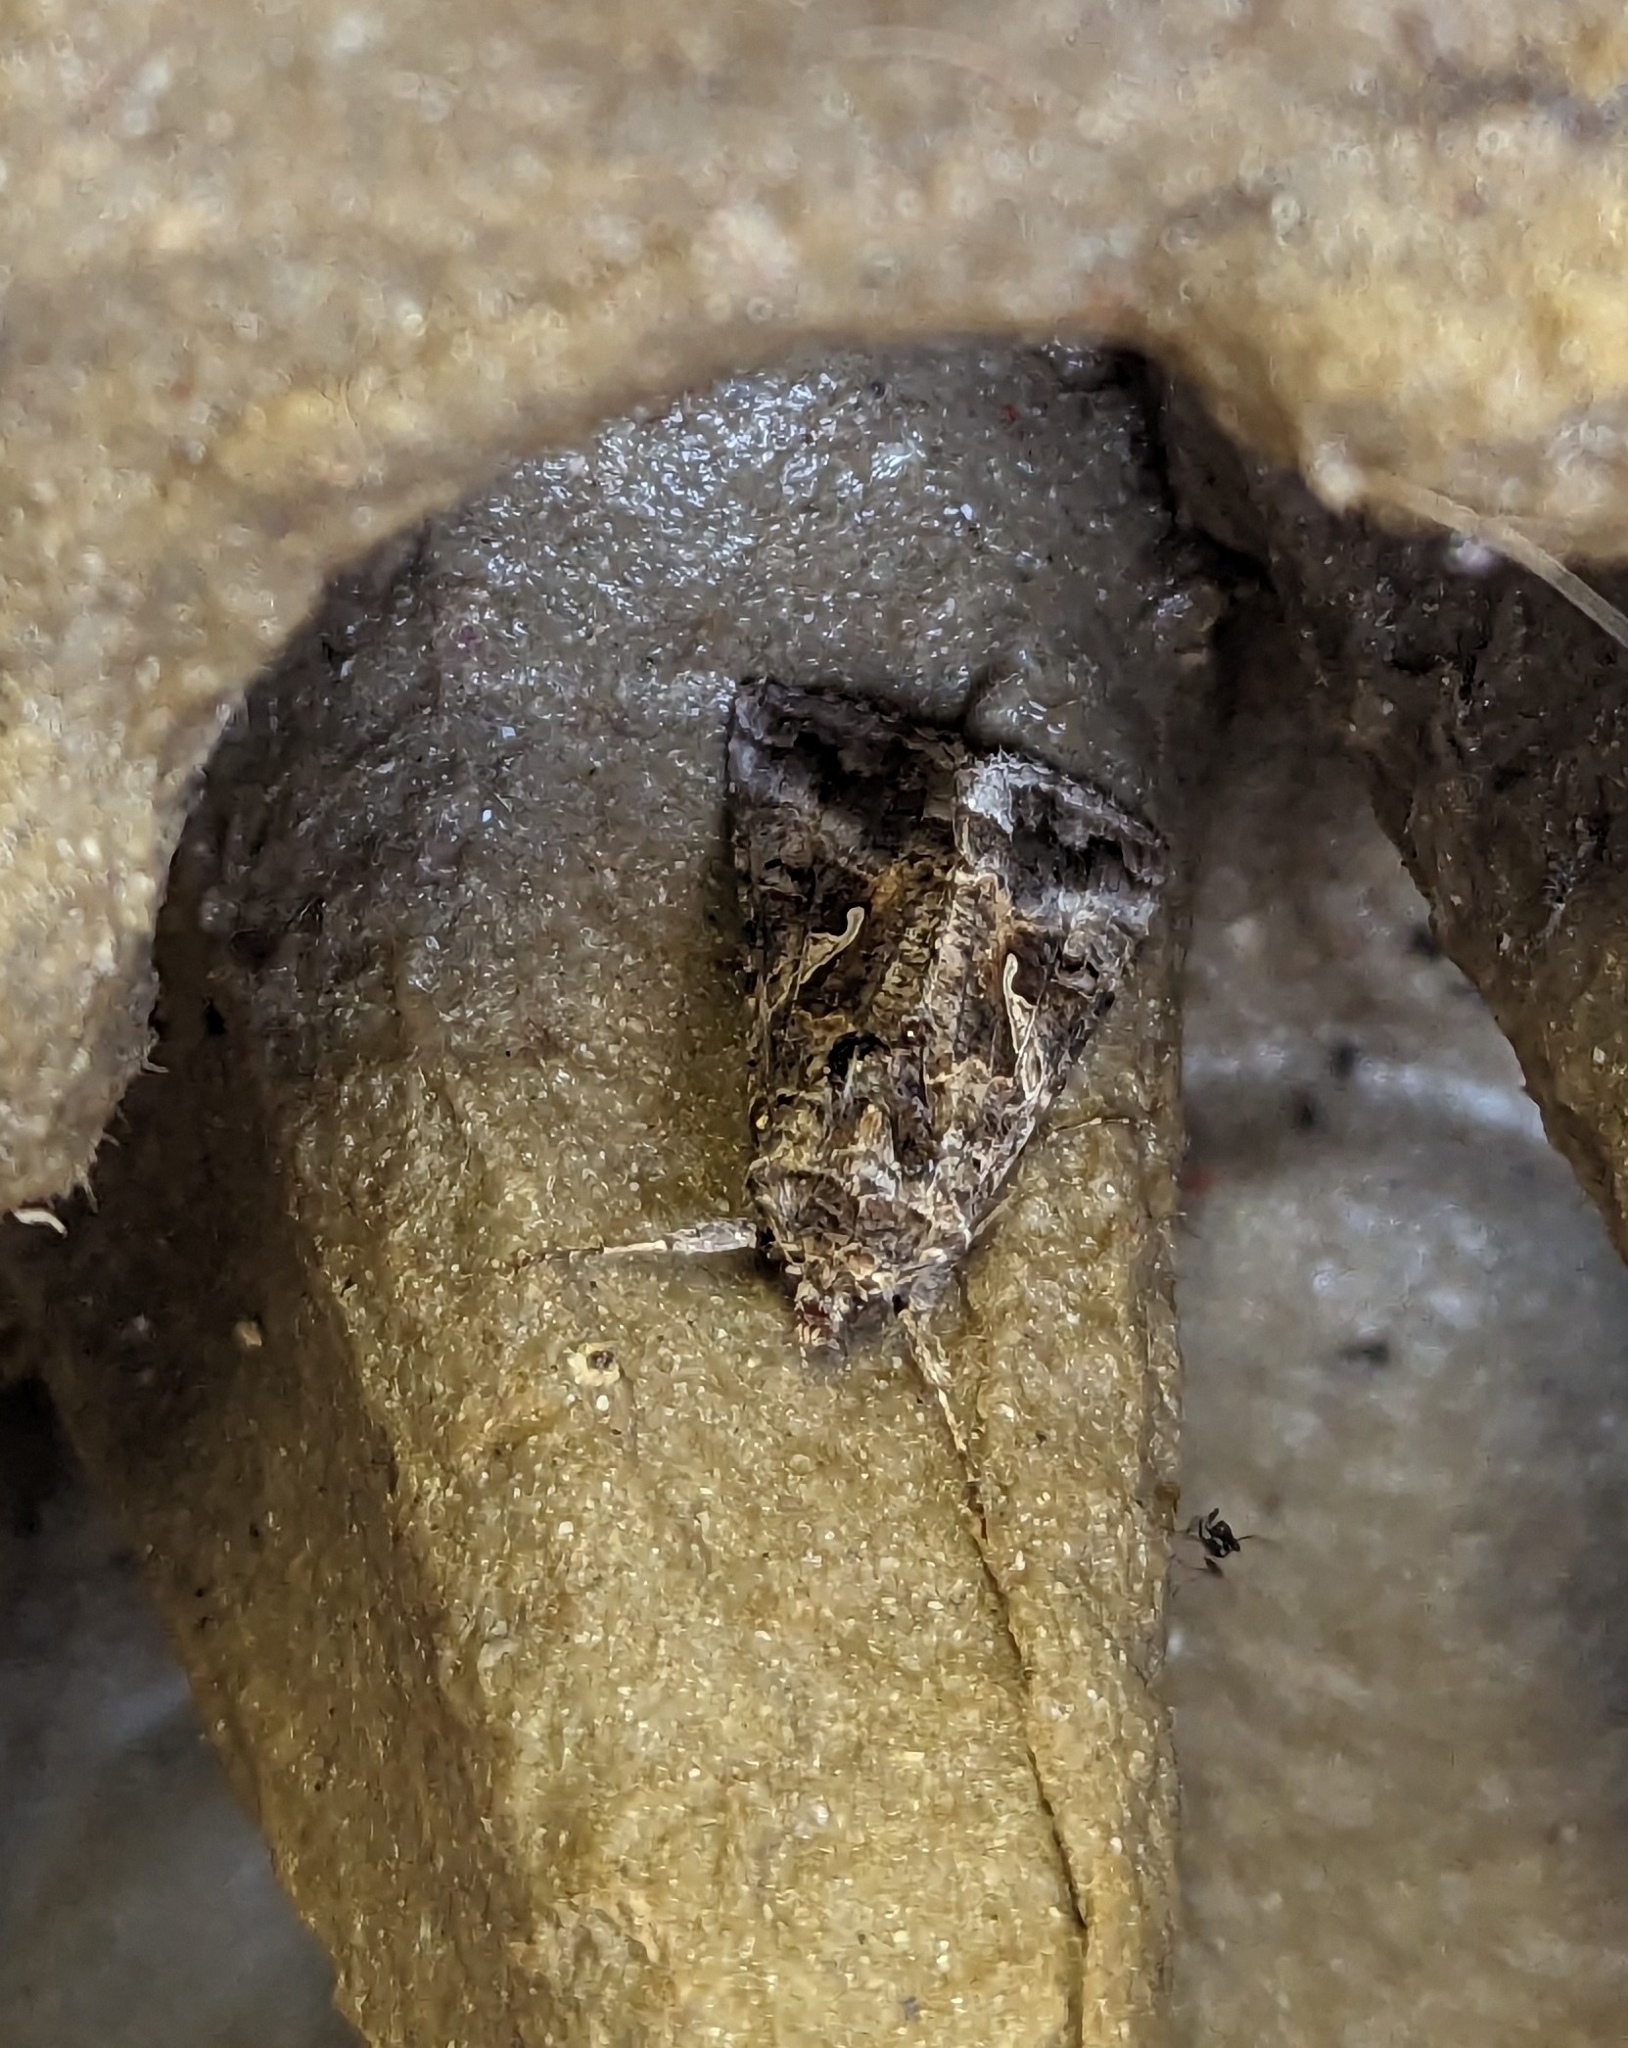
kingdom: Animalia
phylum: Arthropoda
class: Insecta
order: Lepidoptera
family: Noctuidae
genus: Autographa
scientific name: Autographa gamma
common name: Silver y
